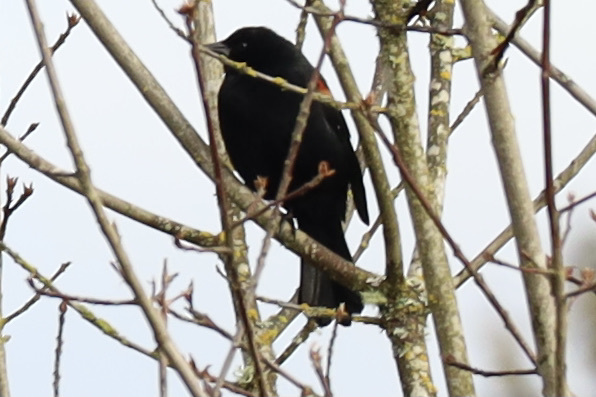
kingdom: Animalia
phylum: Chordata
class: Aves
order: Passeriformes
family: Icteridae
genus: Agelaius
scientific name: Agelaius phoeniceus
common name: Red-winged blackbird
